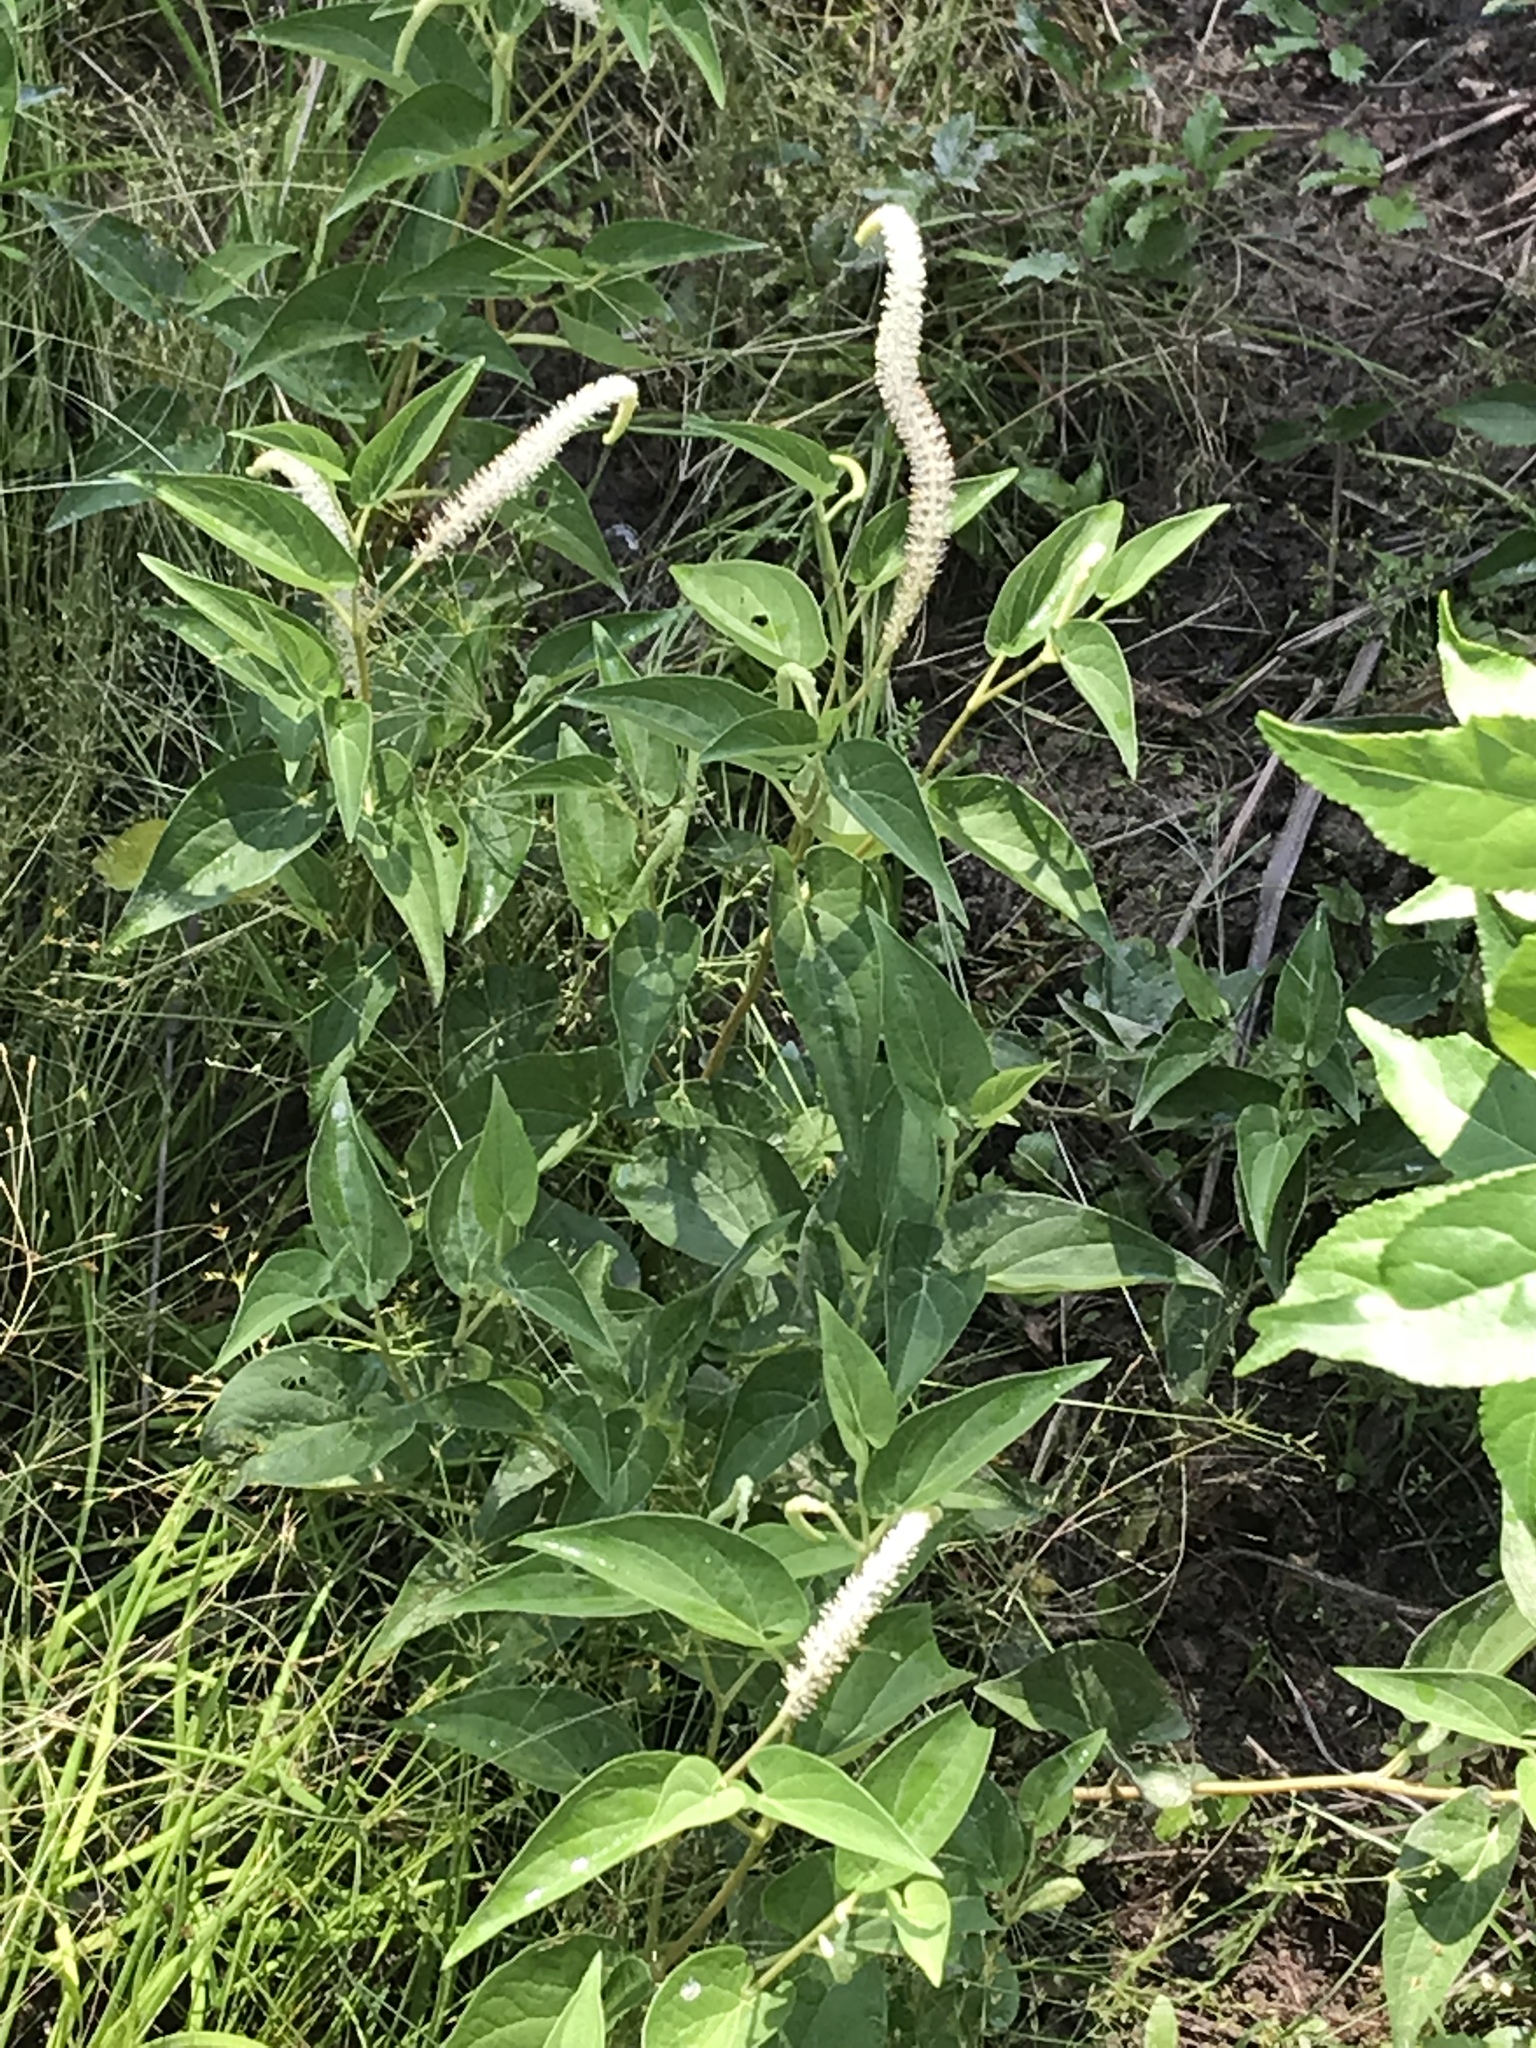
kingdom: Plantae
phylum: Tracheophyta
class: Magnoliopsida
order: Piperales
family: Saururaceae
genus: Saururus
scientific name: Saururus cernuus
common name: Lizard's-tail
